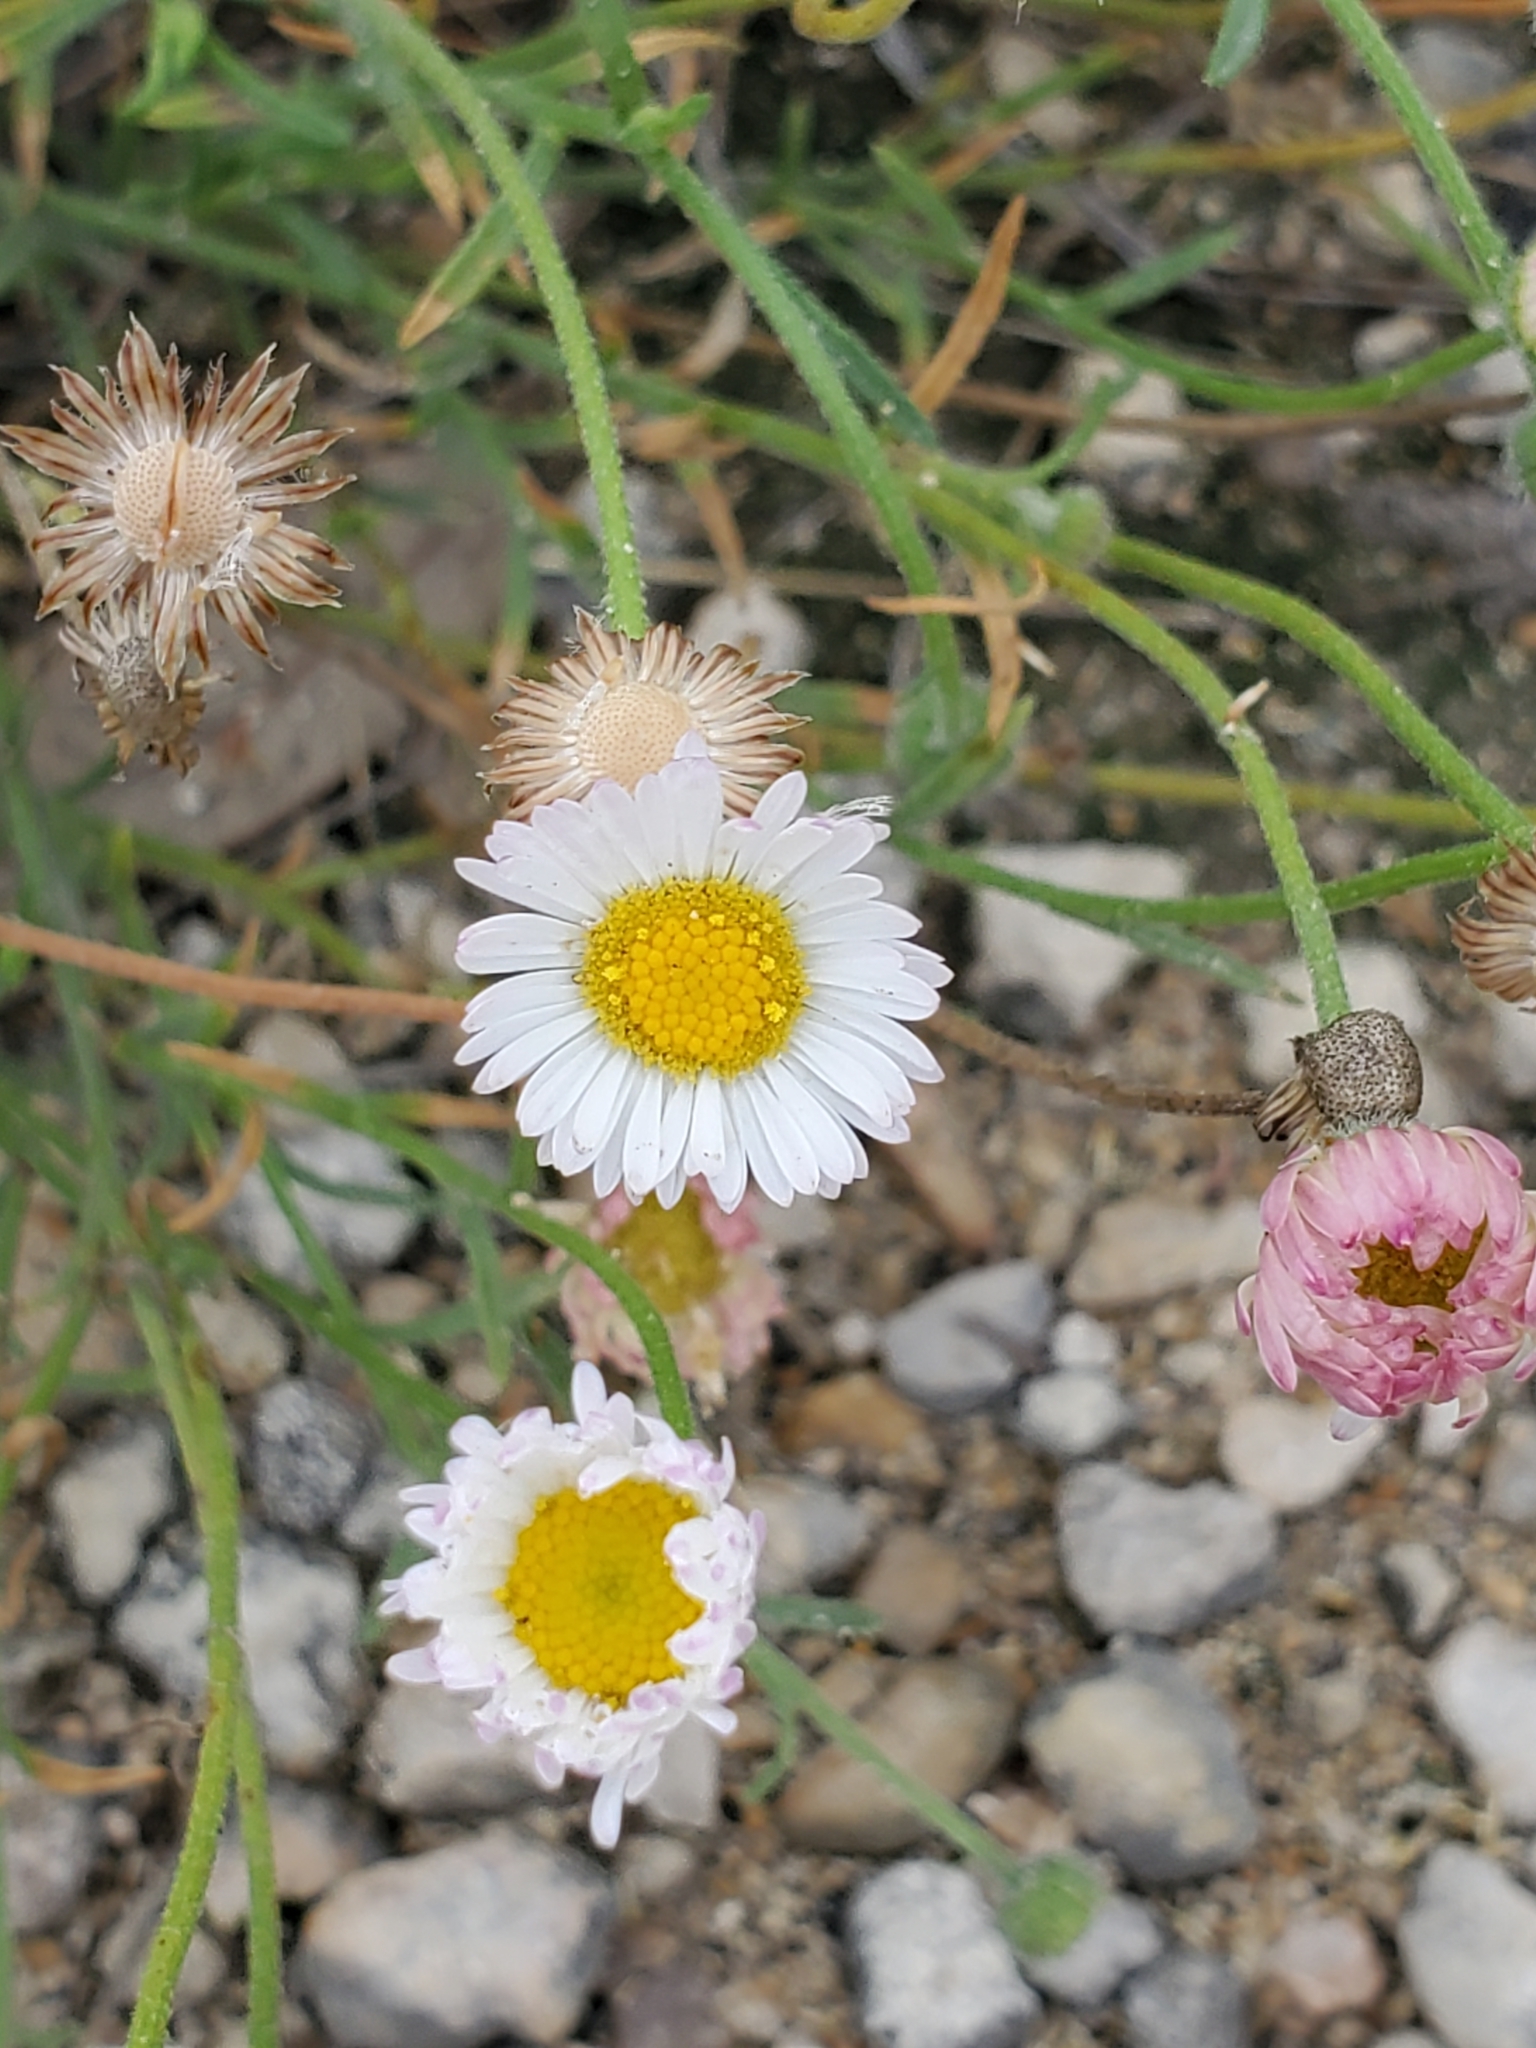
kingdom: Plantae
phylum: Tracheophyta
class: Magnoliopsida
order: Asterales
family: Asteraceae
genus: Erigeron
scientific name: Erigeron modestus
